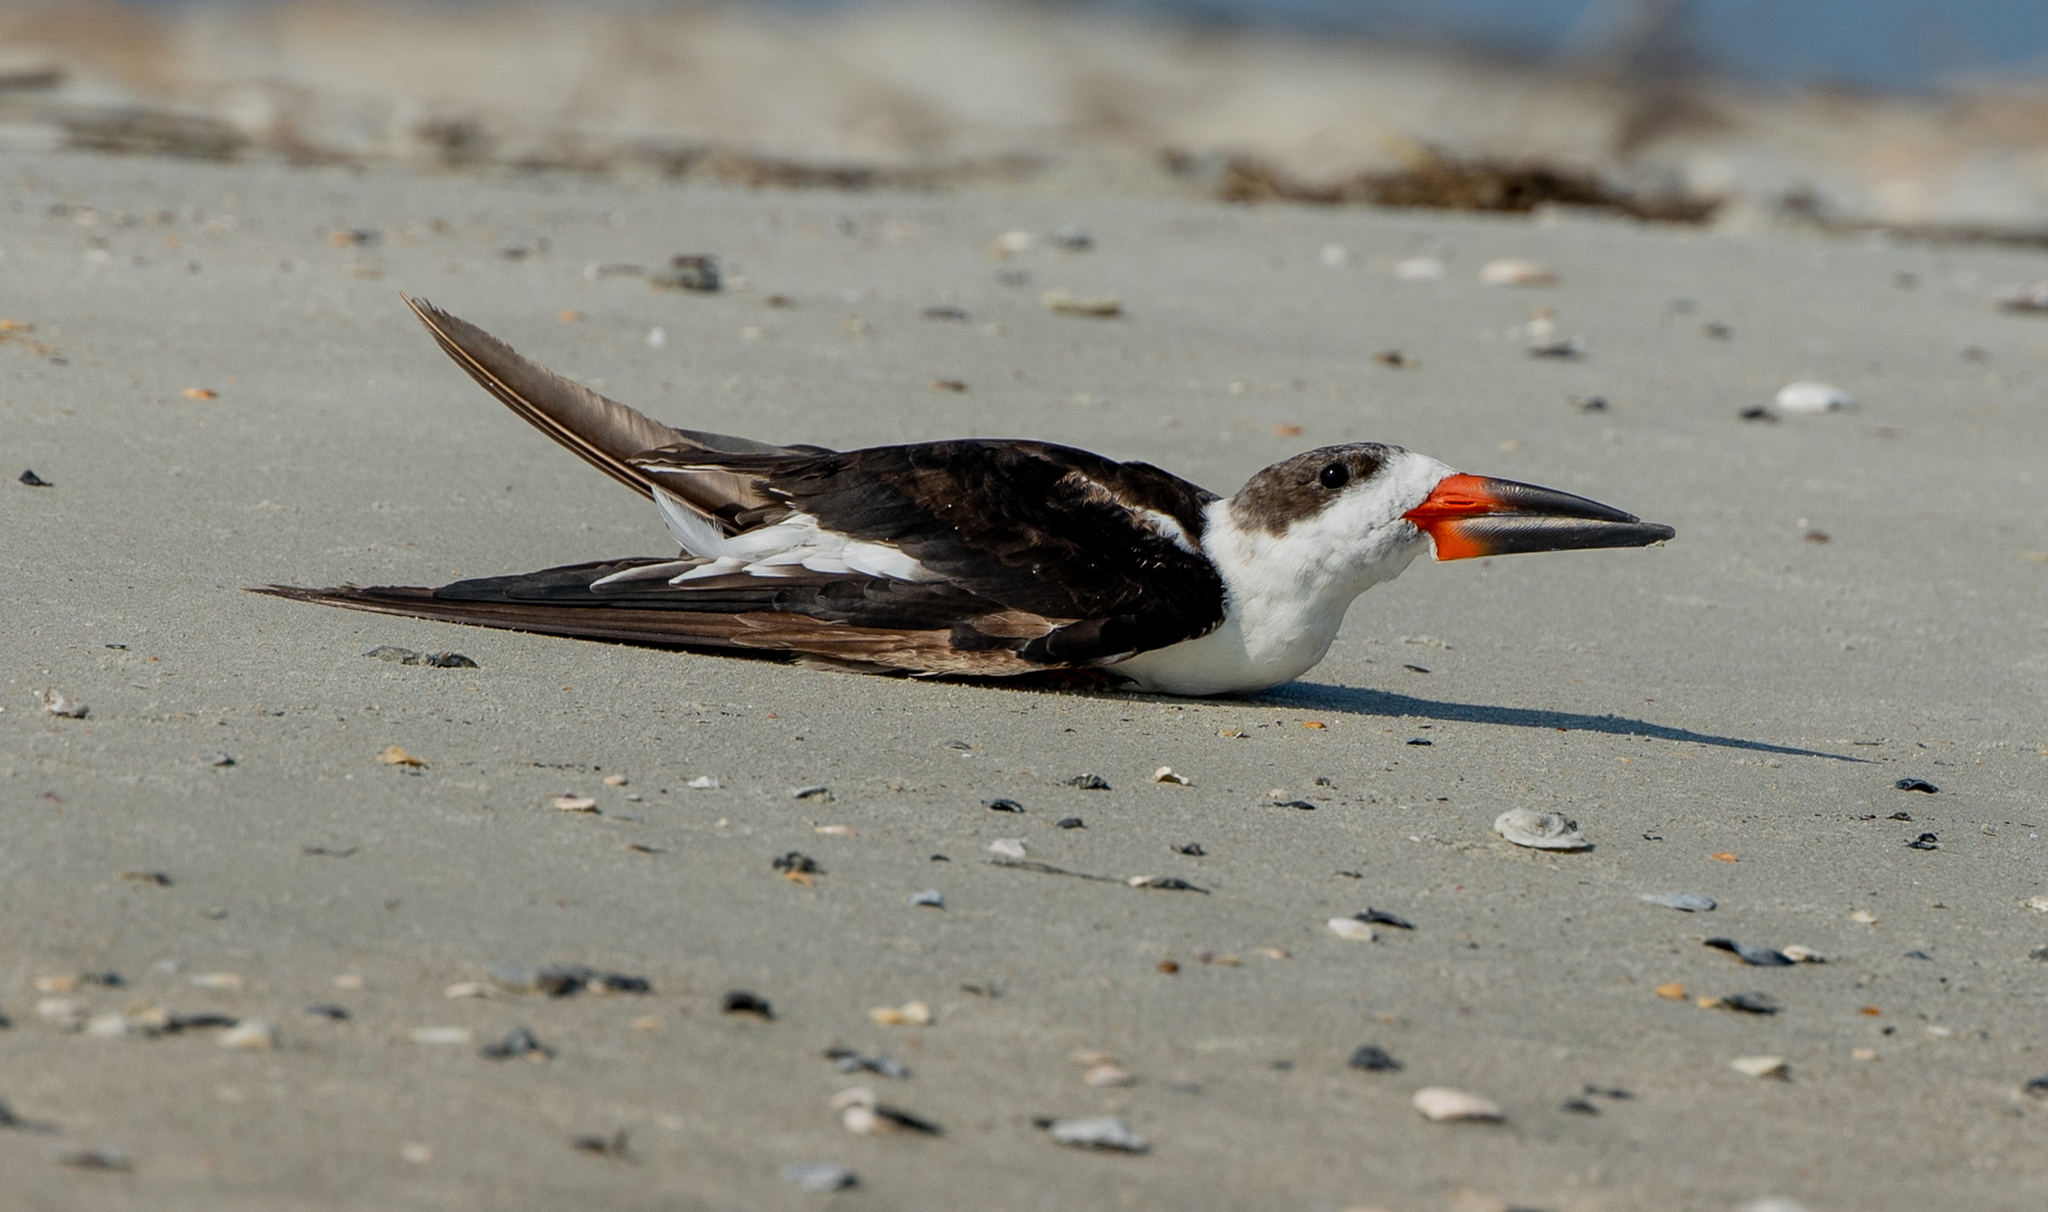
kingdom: Animalia
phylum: Chordata
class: Aves
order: Charadriiformes
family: Laridae
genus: Rynchops
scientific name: Rynchops niger
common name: Black skimmer
